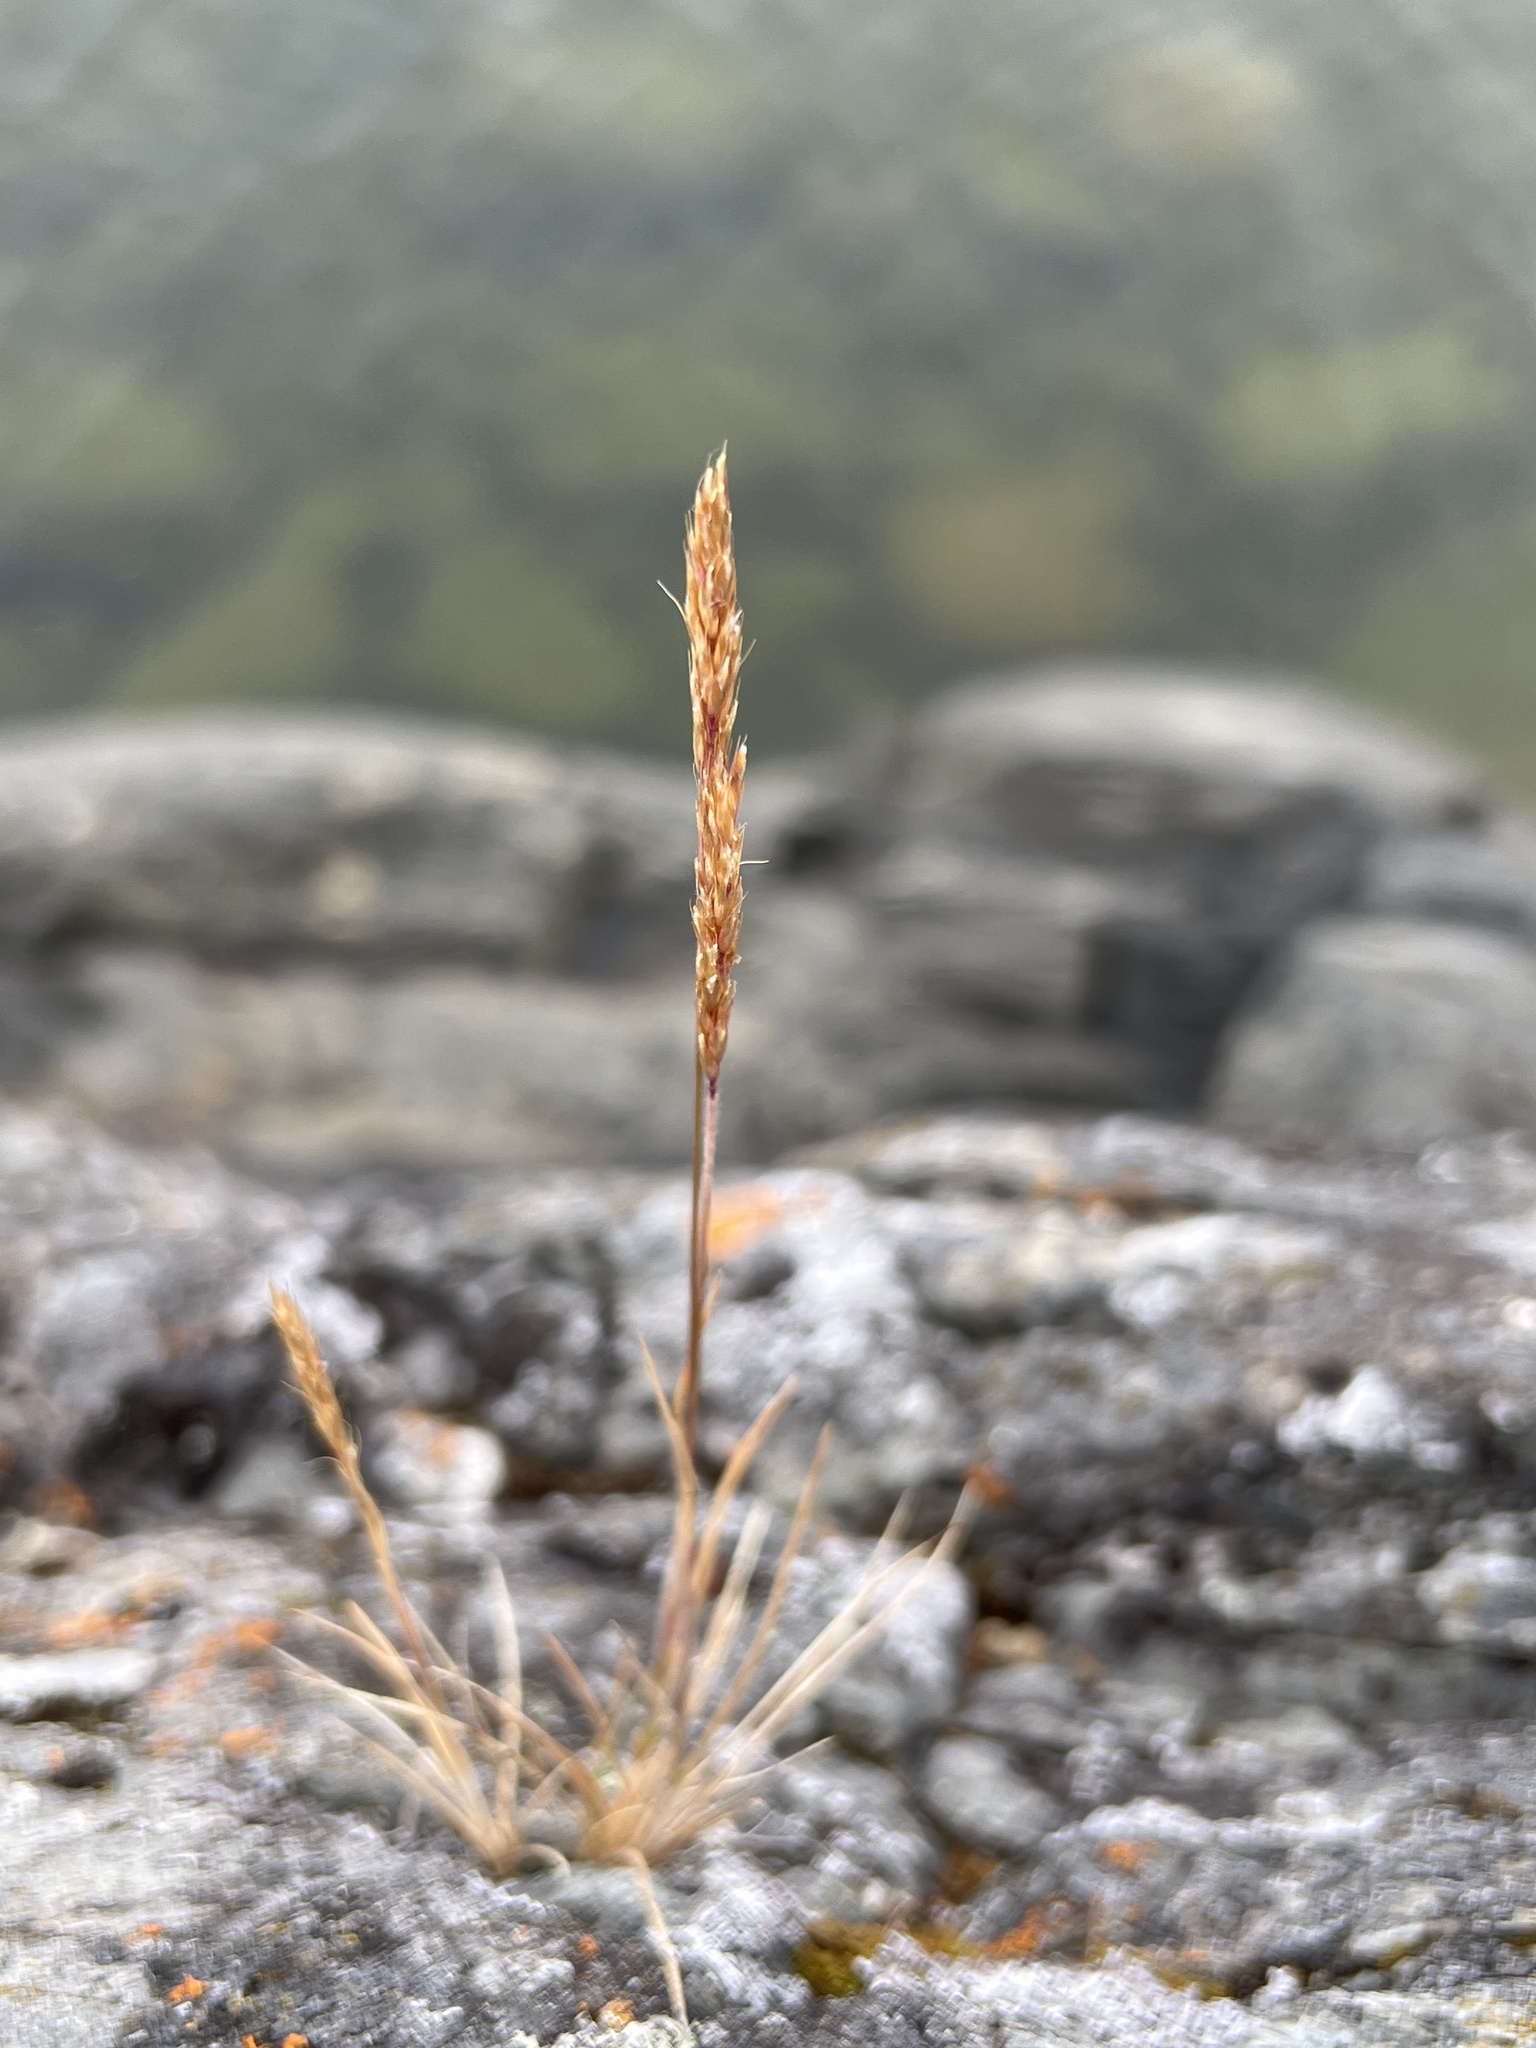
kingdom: Plantae
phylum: Tracheophyta
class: Liliopsida
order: Poales
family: Poaceae
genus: Koeleria
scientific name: Koeleria spicata
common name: Mountain trisetum
